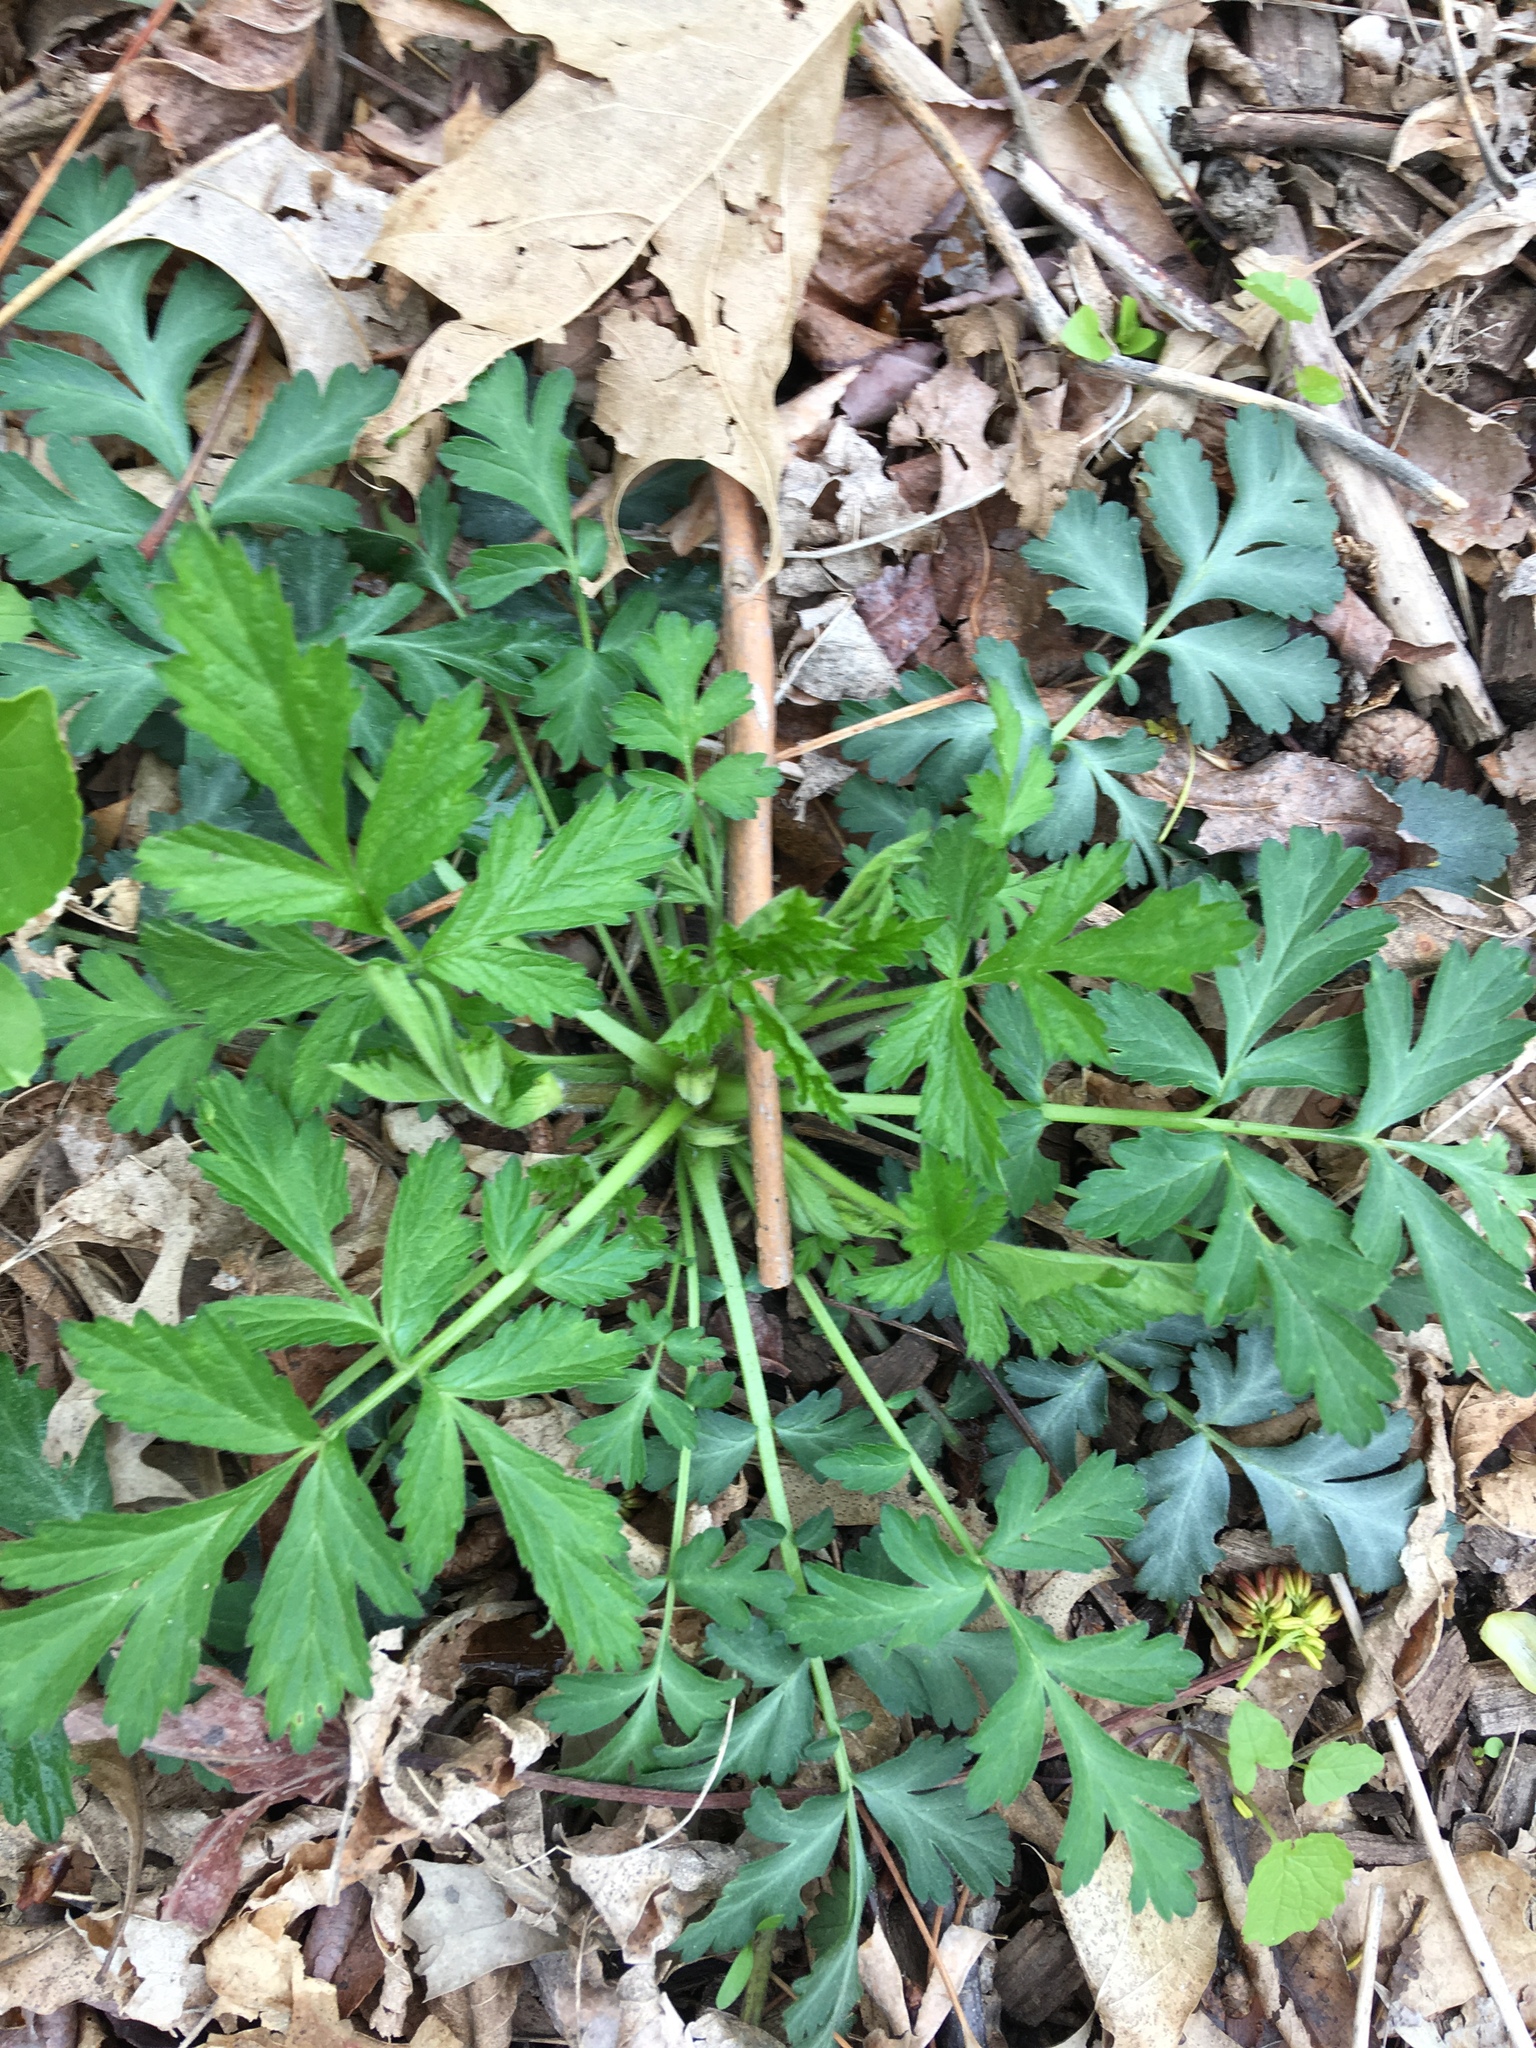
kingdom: Plantae
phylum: Tracheophyta
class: Magnoliopsida
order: Rosales
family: Rosaceae
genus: Geum
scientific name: Geum canadense
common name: White avens
